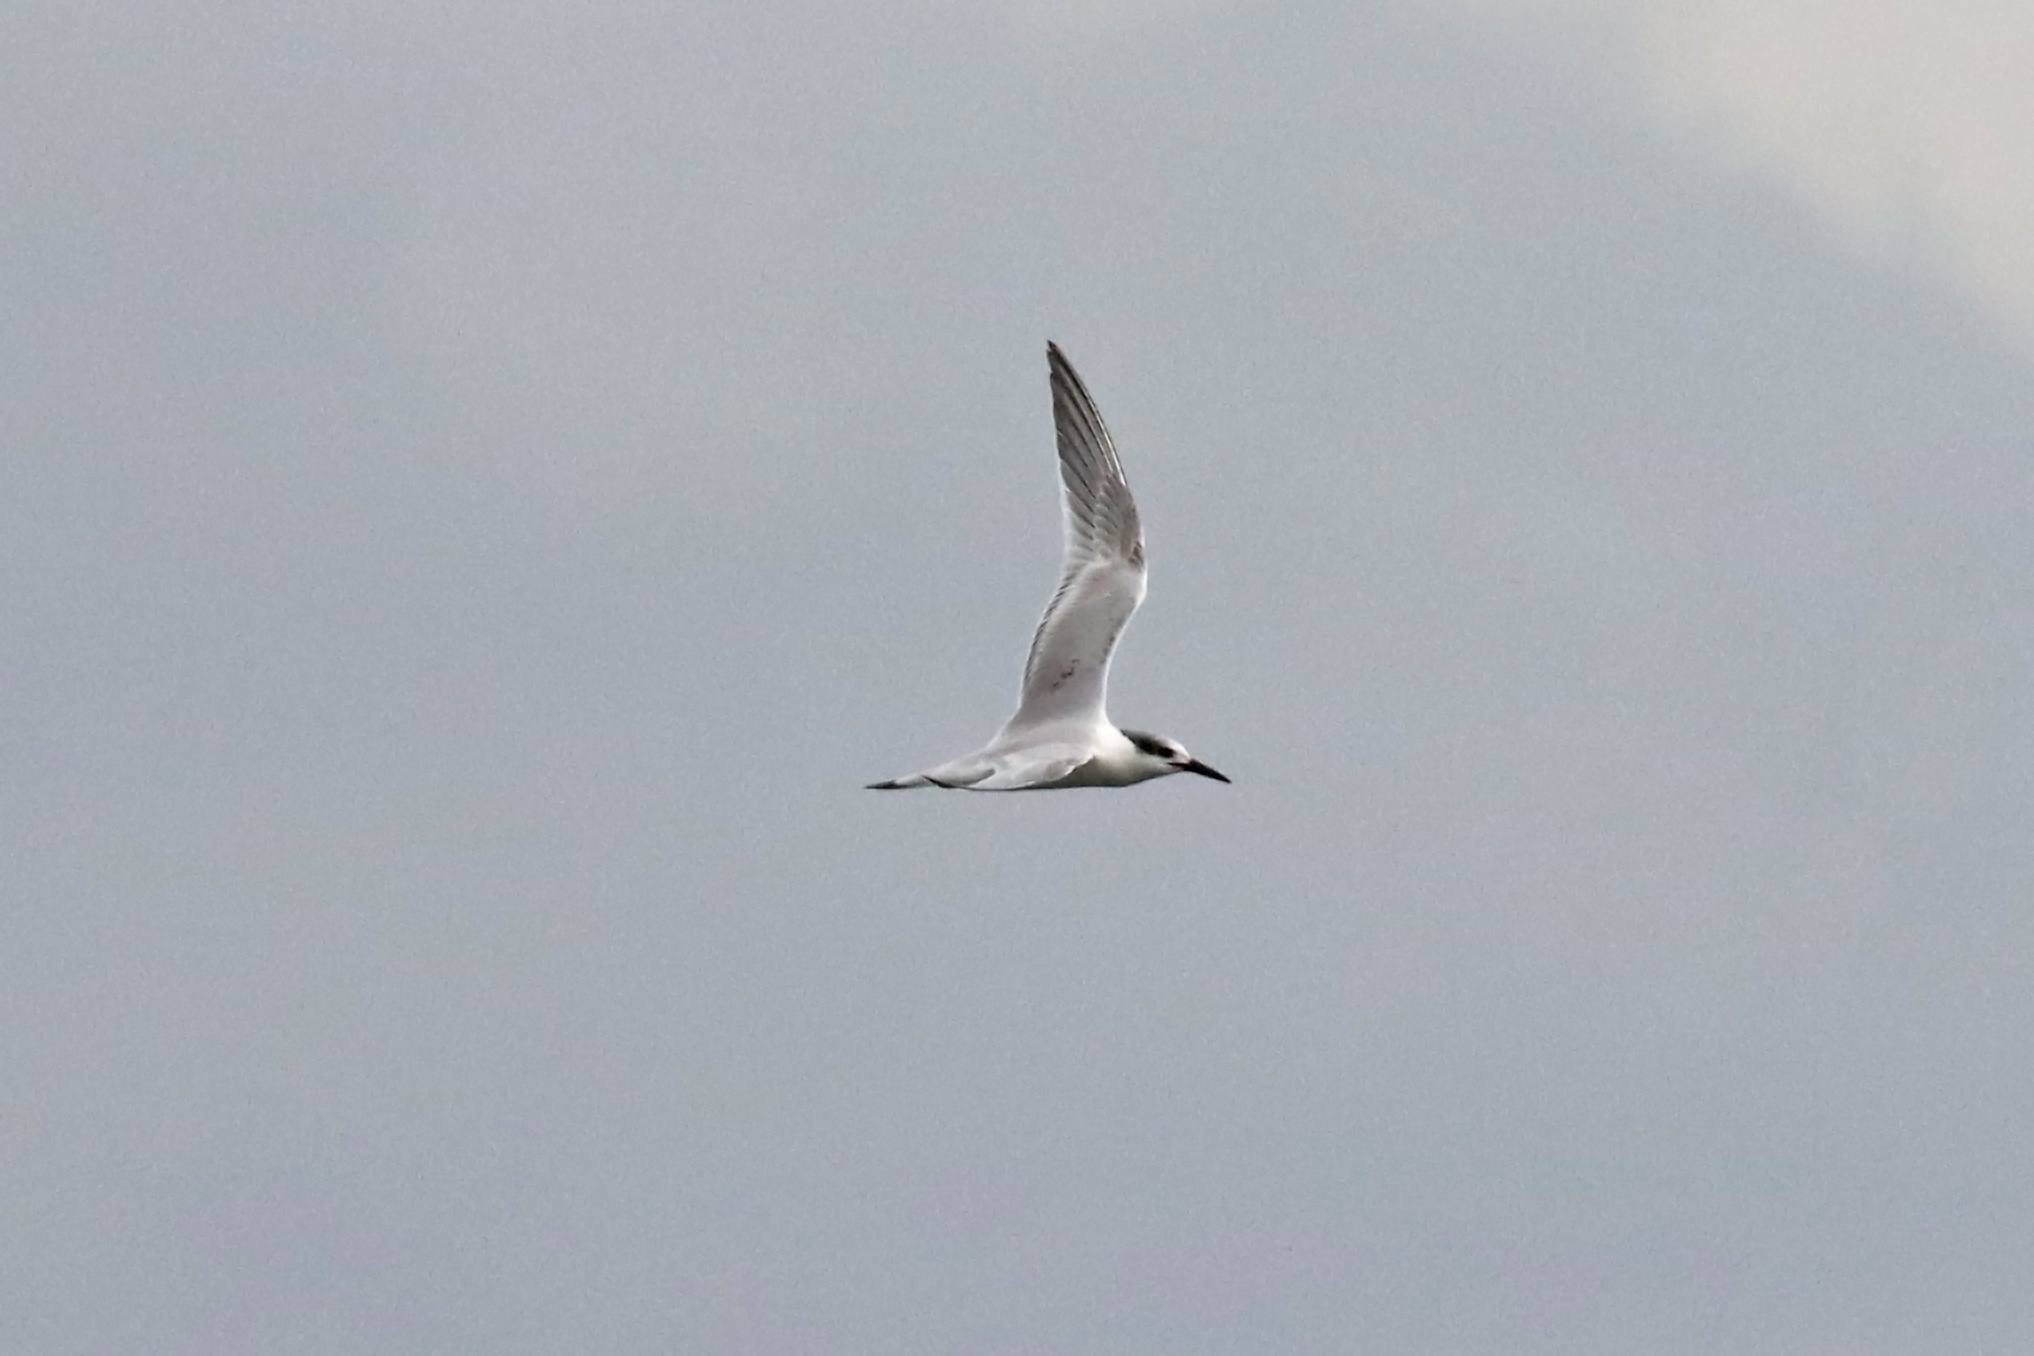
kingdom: Animalia
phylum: Chordata
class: Aves
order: Charadriiformes
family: Laridae
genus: Thalasseus
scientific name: Thalasseus sandvicensis
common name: Sandwich tern
